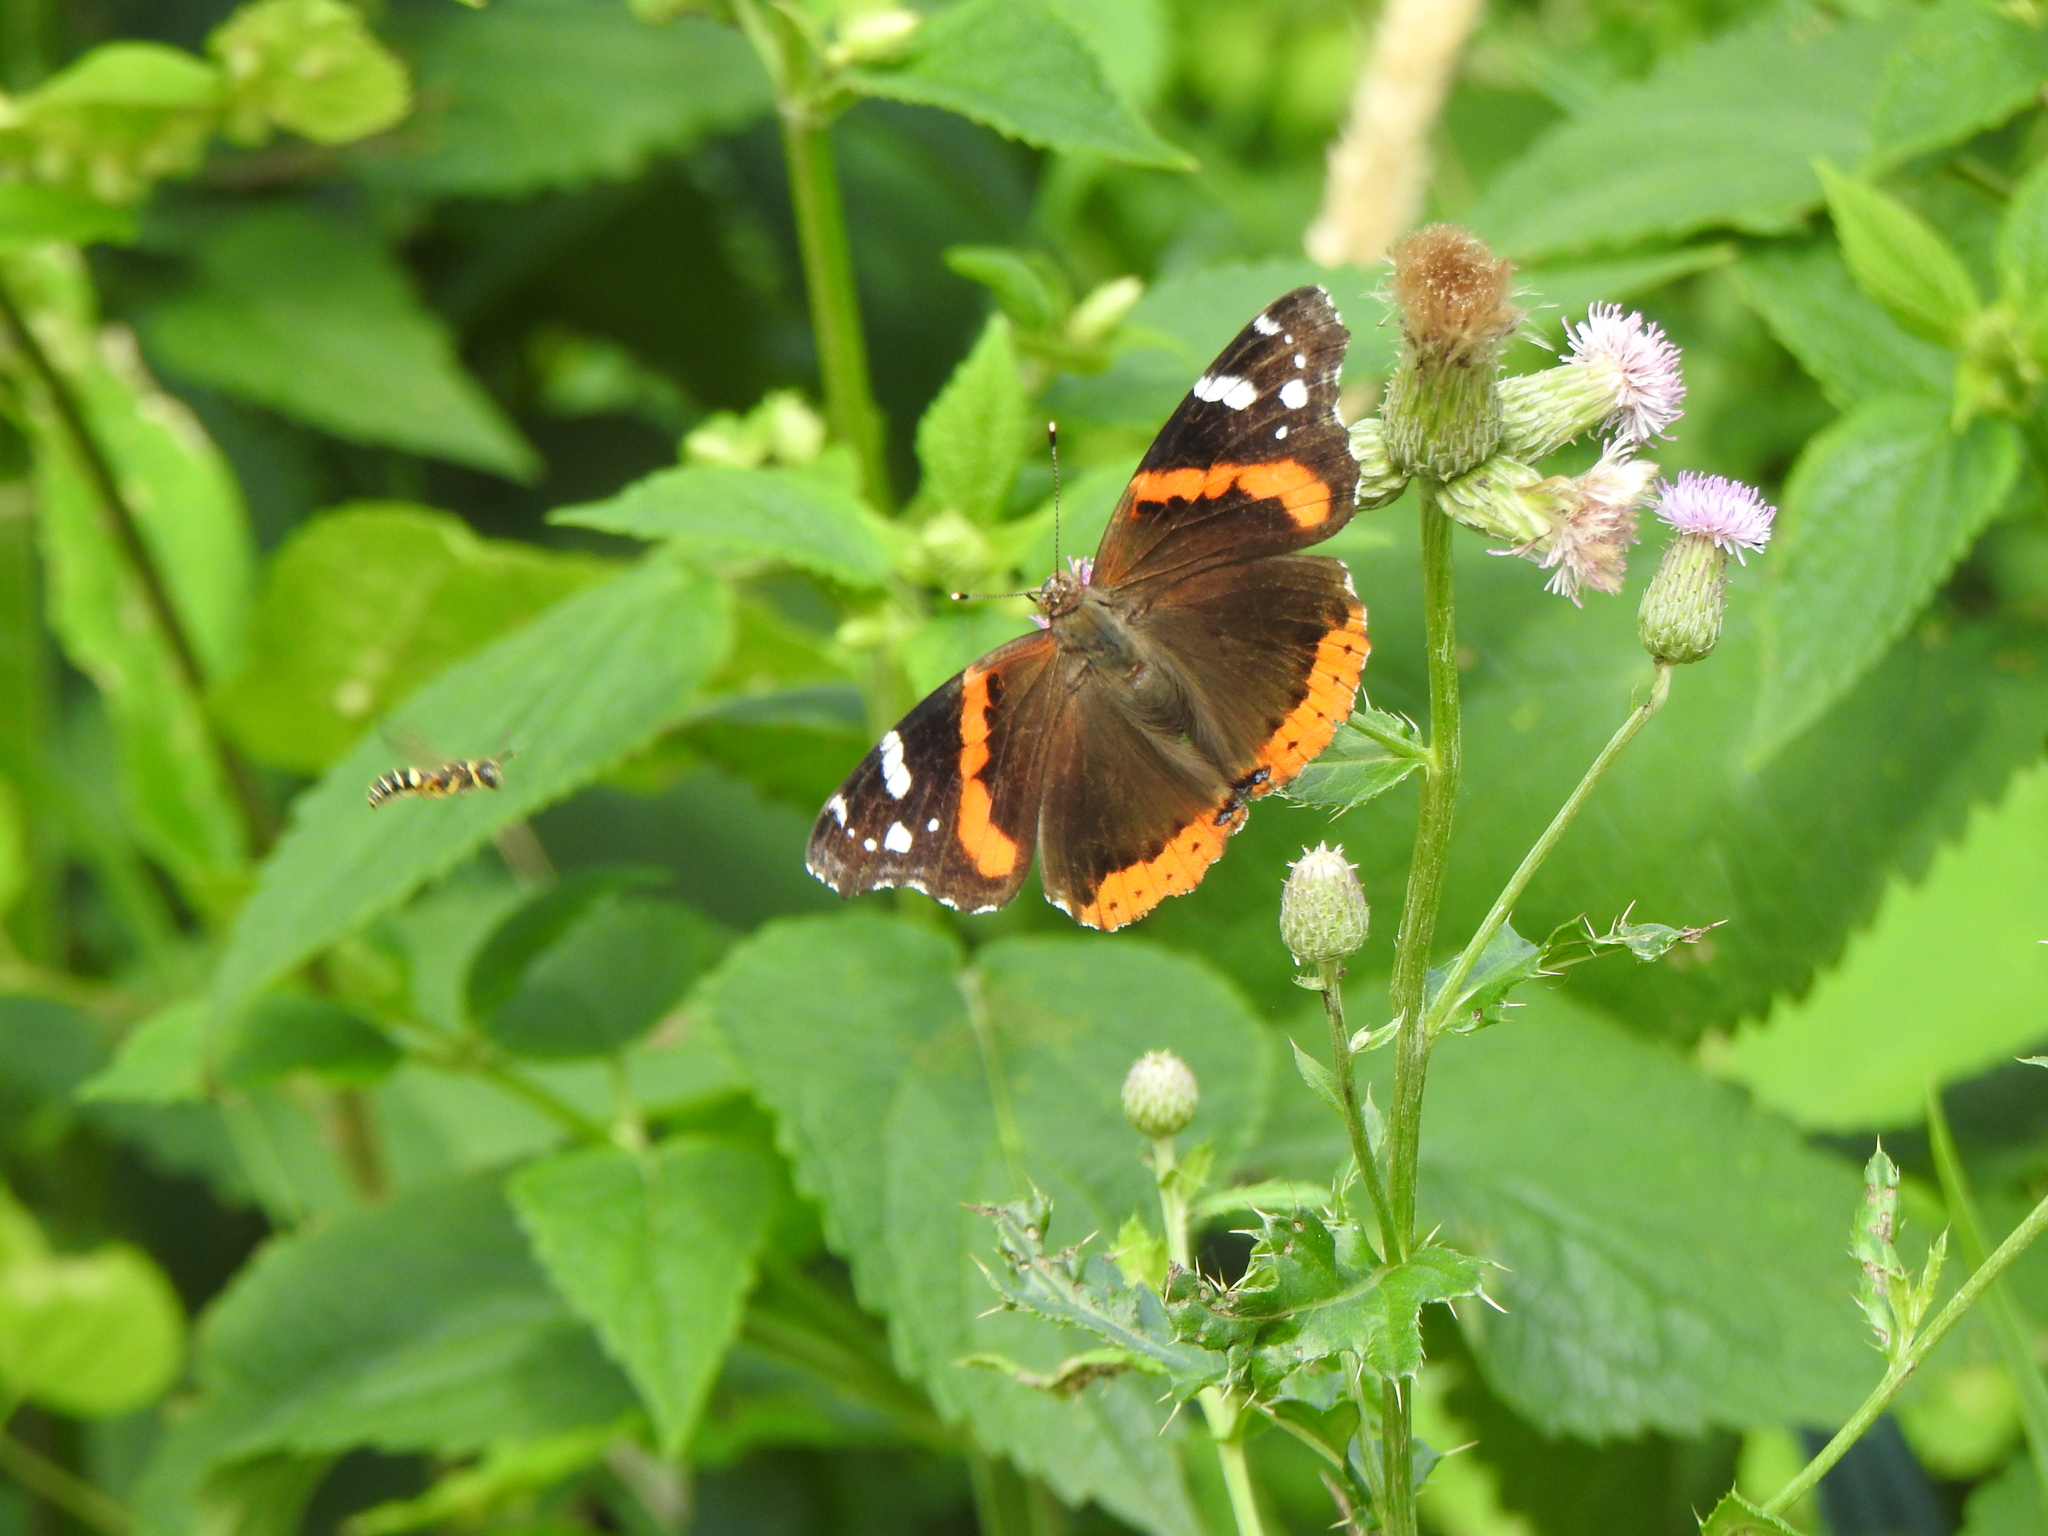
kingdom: Animalia
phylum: Arthropoda
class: Insecta
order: Lepidoptera
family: Nymphalidae
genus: Vanessa
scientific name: Vanessa atalanta
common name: Red admiral
